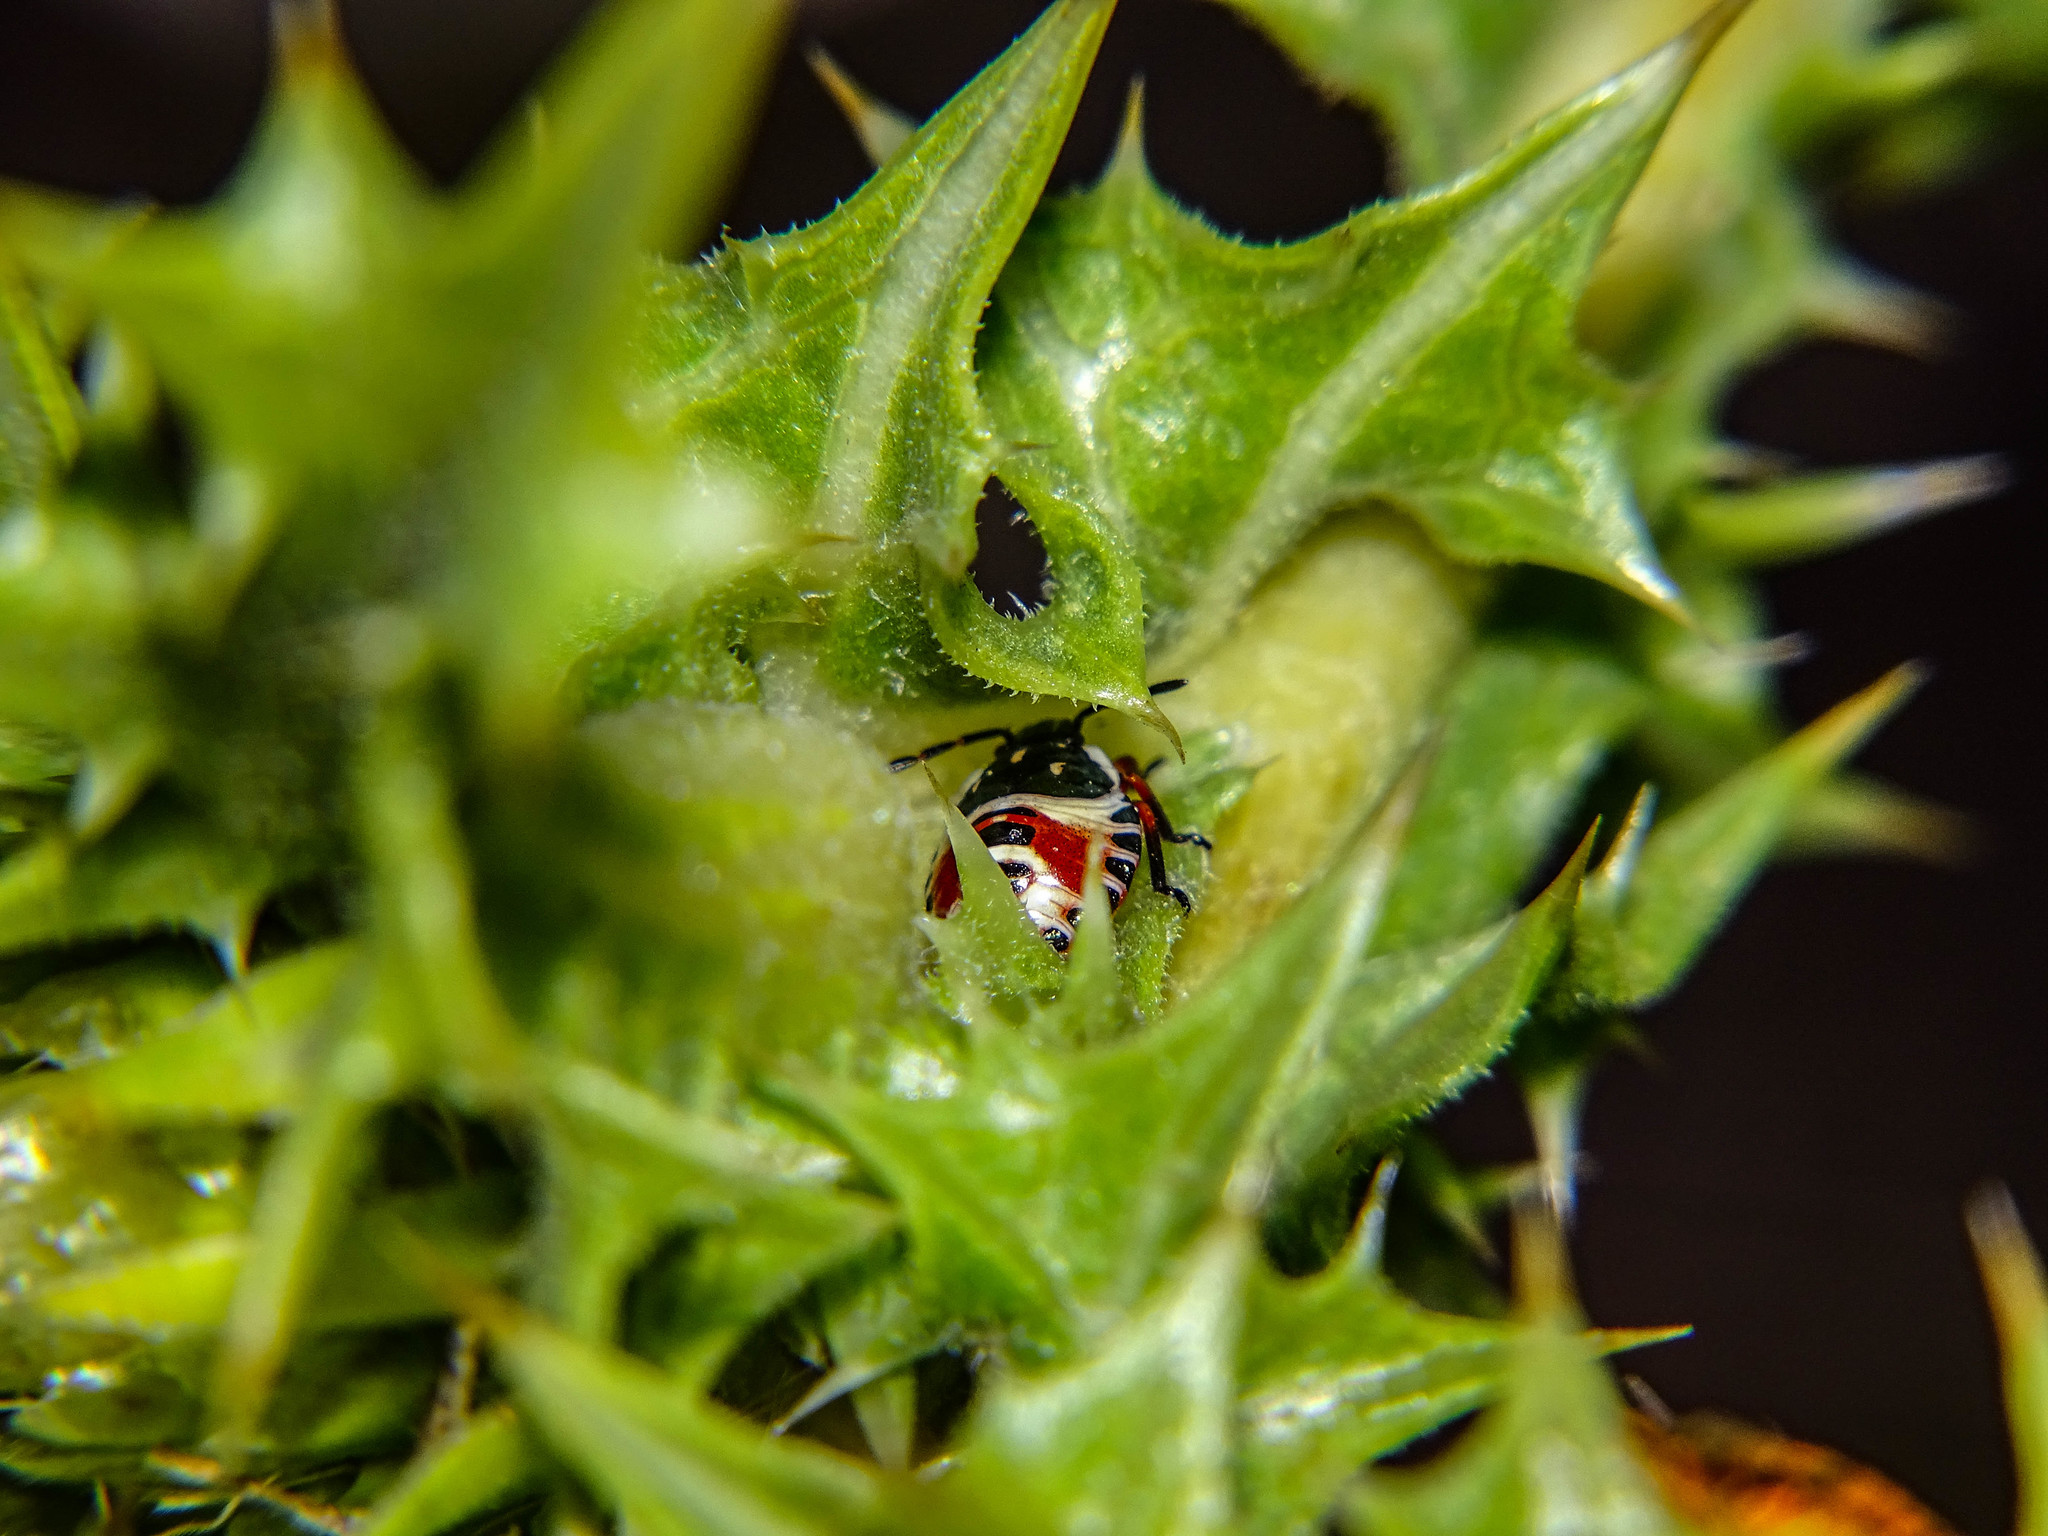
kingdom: Animalia
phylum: Arthropoda
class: Insecta
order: Hemiptera
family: Pentatomidae
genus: Carpocoris
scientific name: Carpocoris
